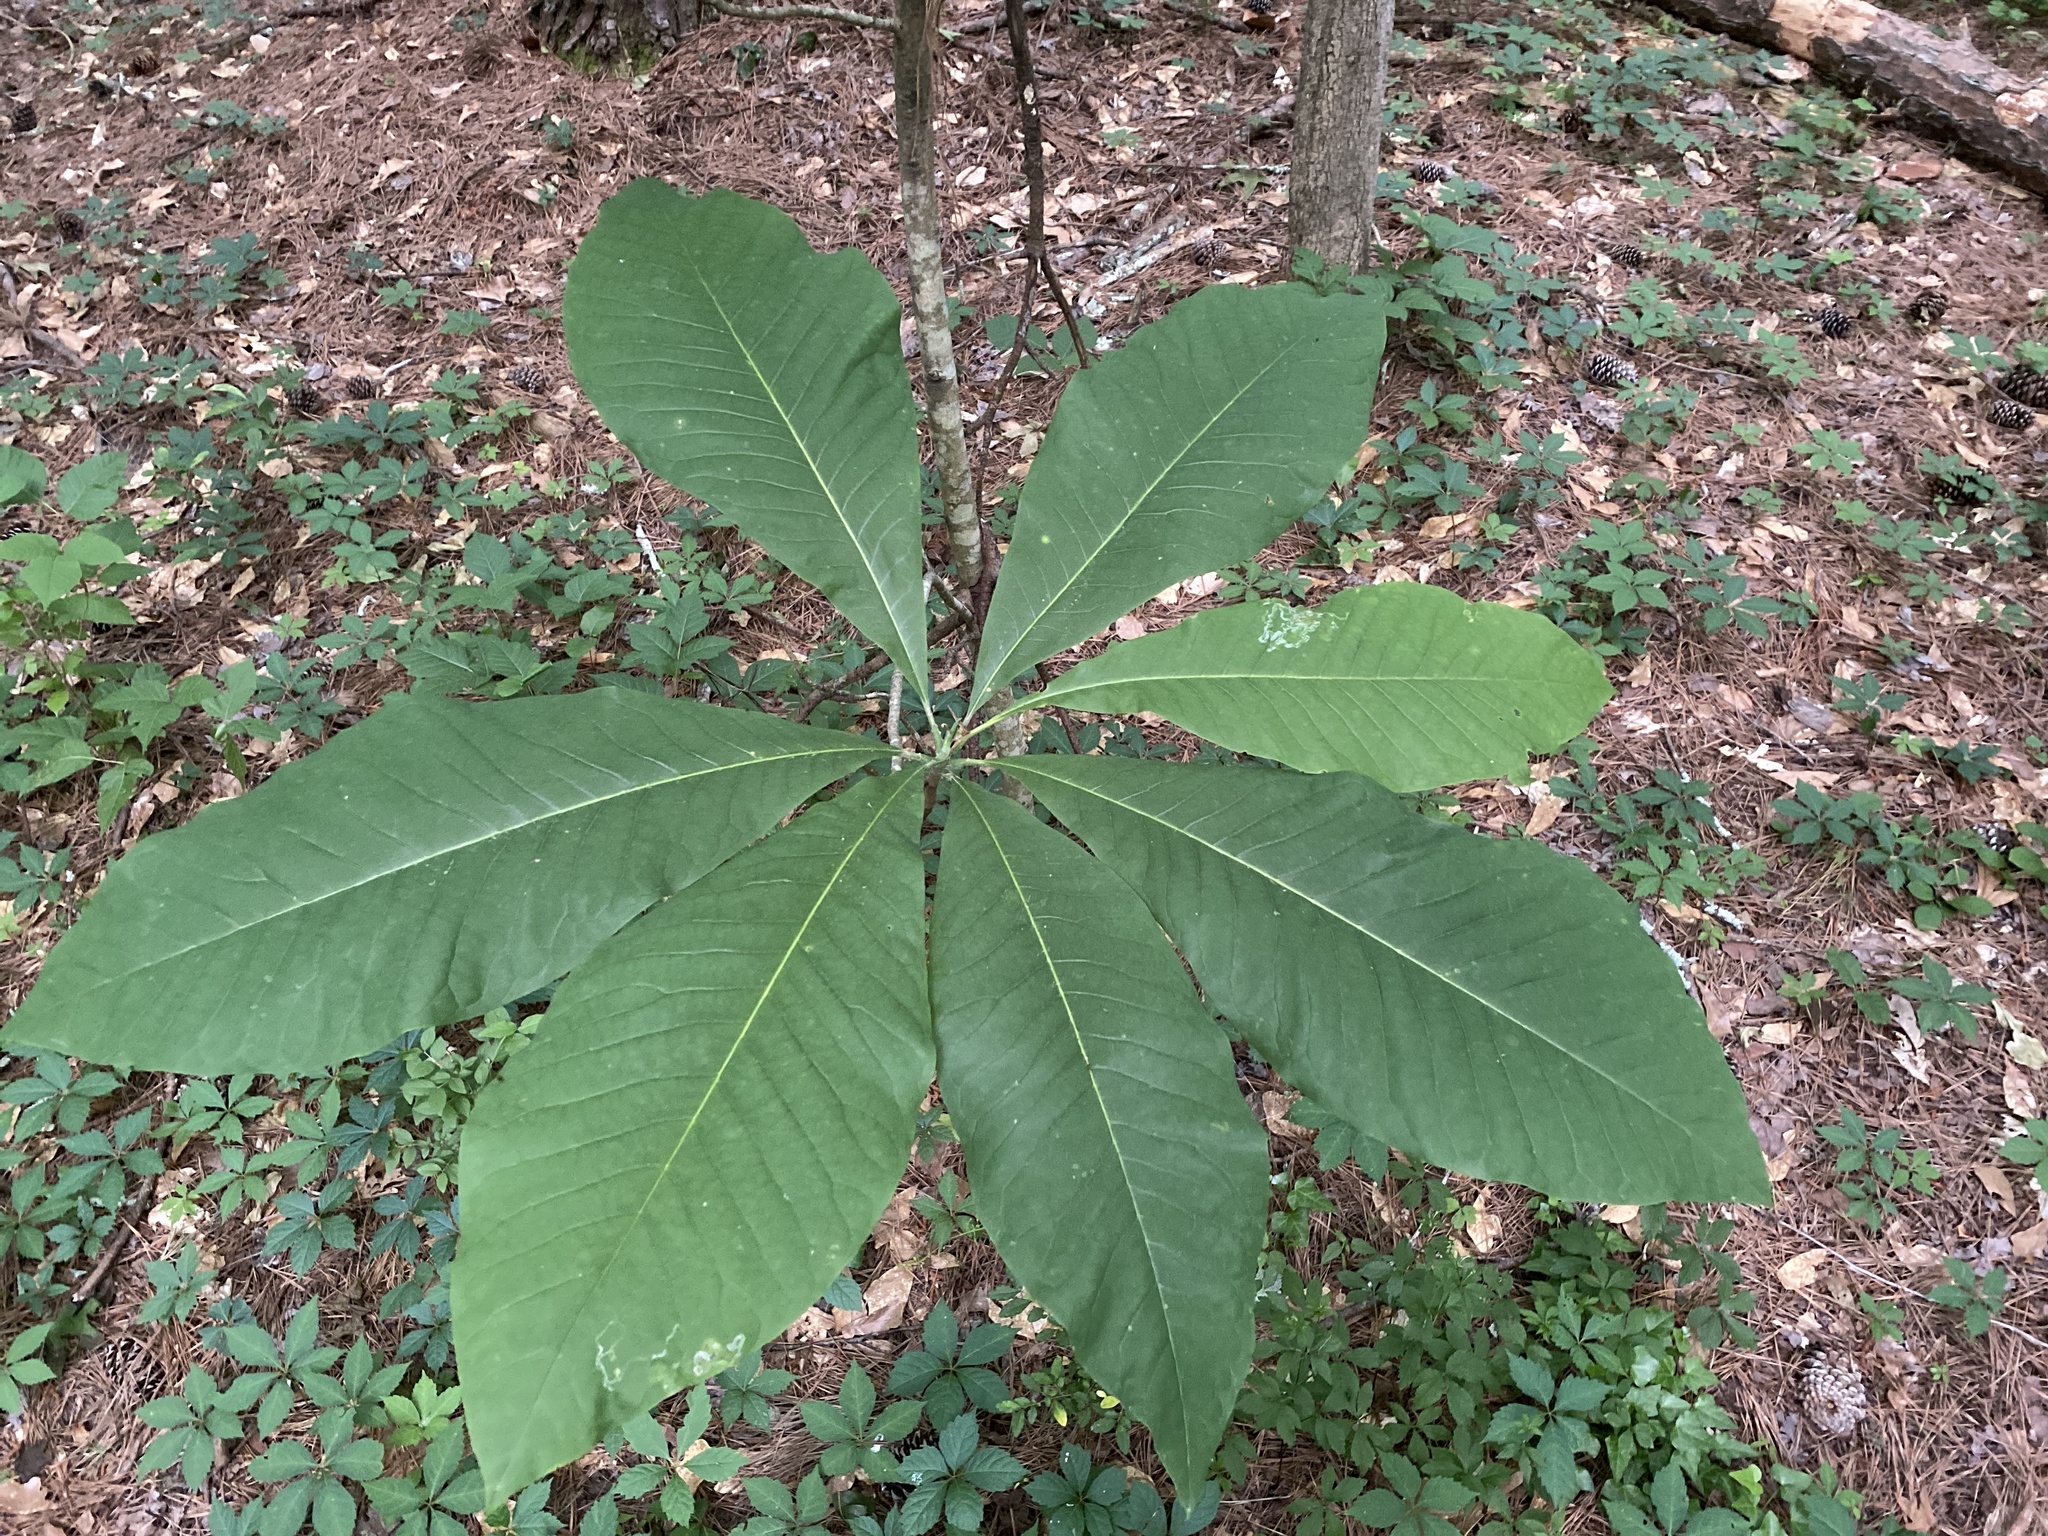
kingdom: Plantae
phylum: Tracheophyta
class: Magnoliopsida
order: Magnoliales
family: Magnoliaceae
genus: Magnolia
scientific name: Magnolia tripetala
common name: Umbrella magnolia
